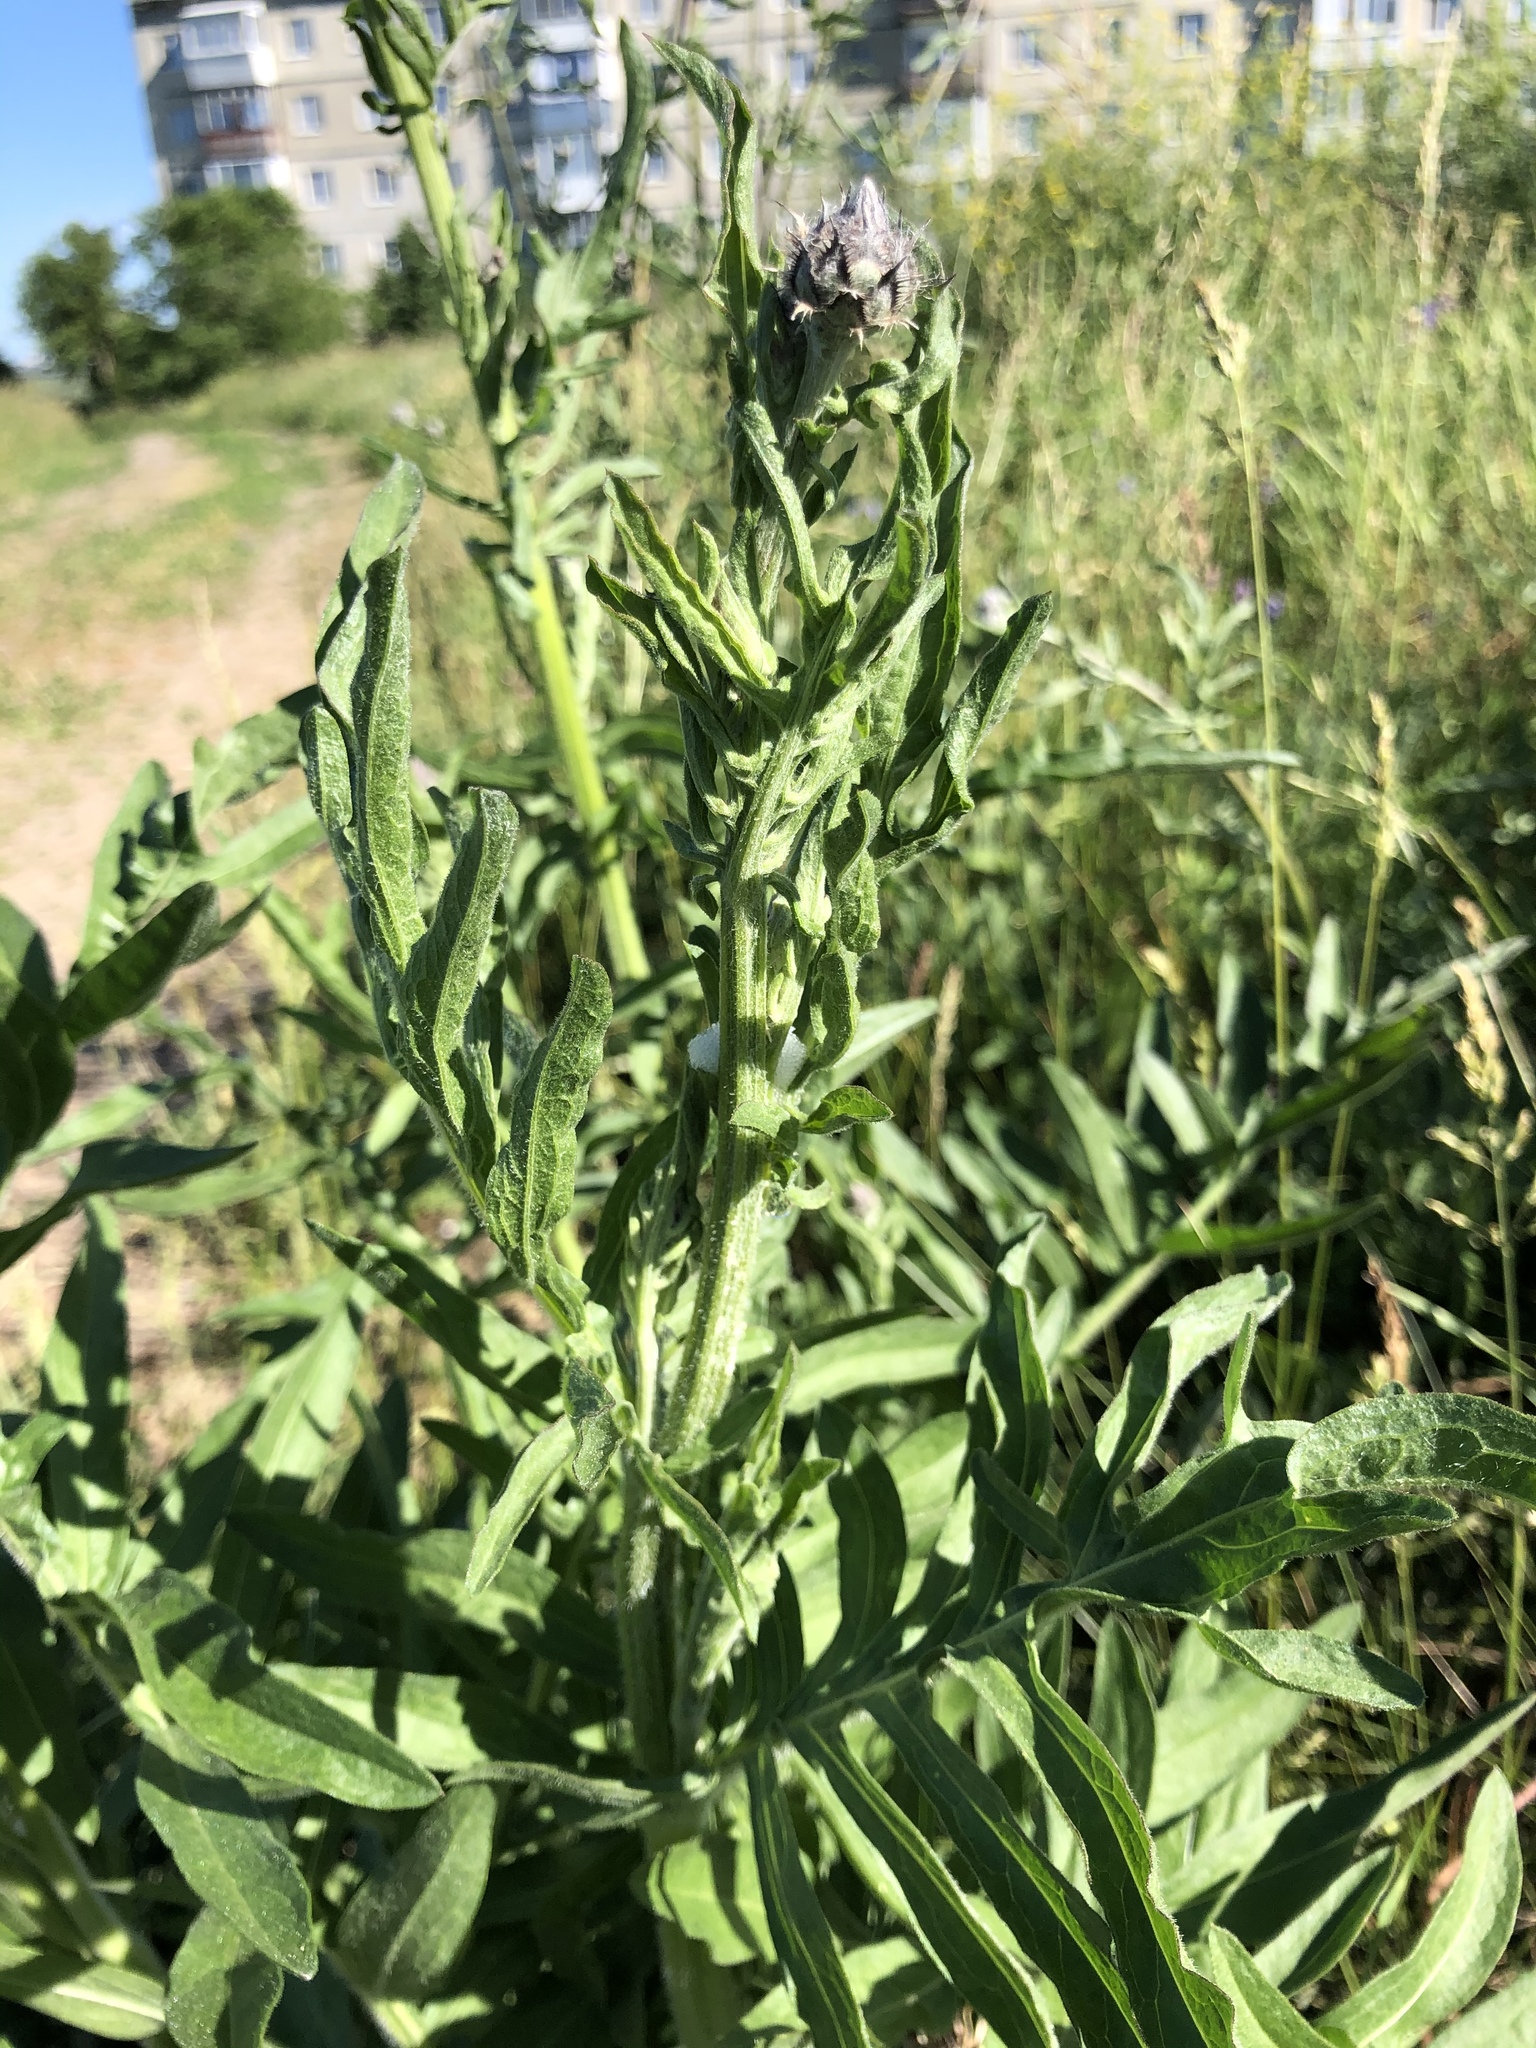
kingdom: Plantae
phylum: Tracheophyta
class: Magnoliopsida
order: Asterales
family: Asteraceae
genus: Centaurea
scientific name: Centaurea scabiosa
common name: Greater knapweed
